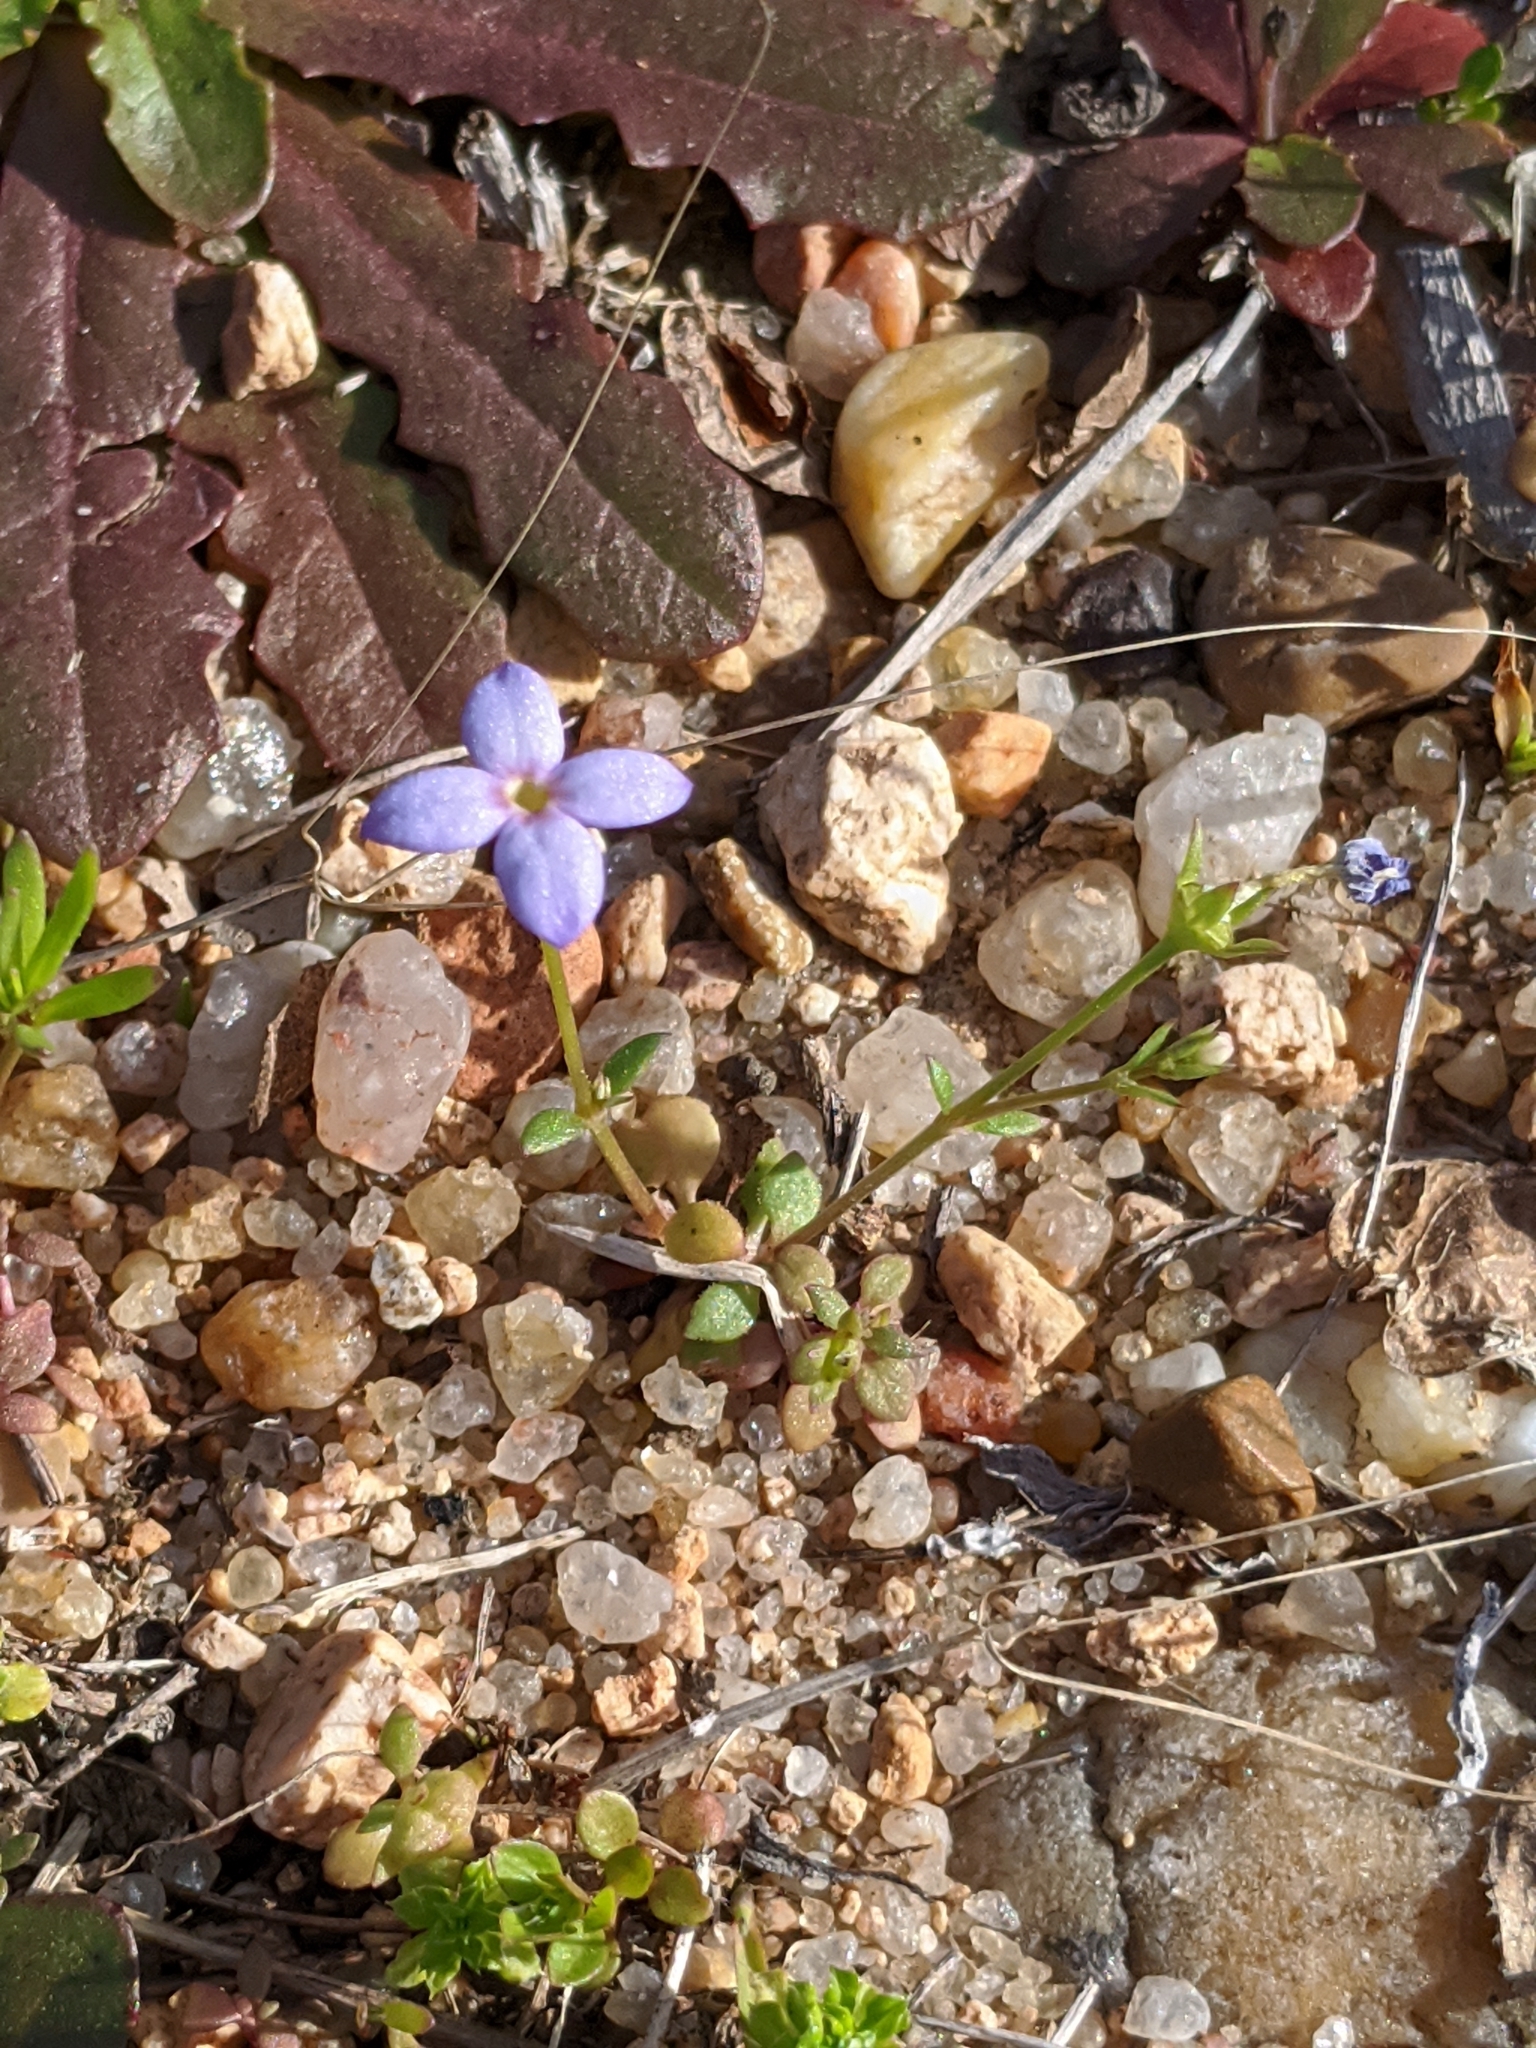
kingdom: Plantae
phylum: Tracheophyta
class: Magnoliopsida
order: Gentianales
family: Rubiaceae
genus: Houstonia
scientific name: Houstonia pusilla
